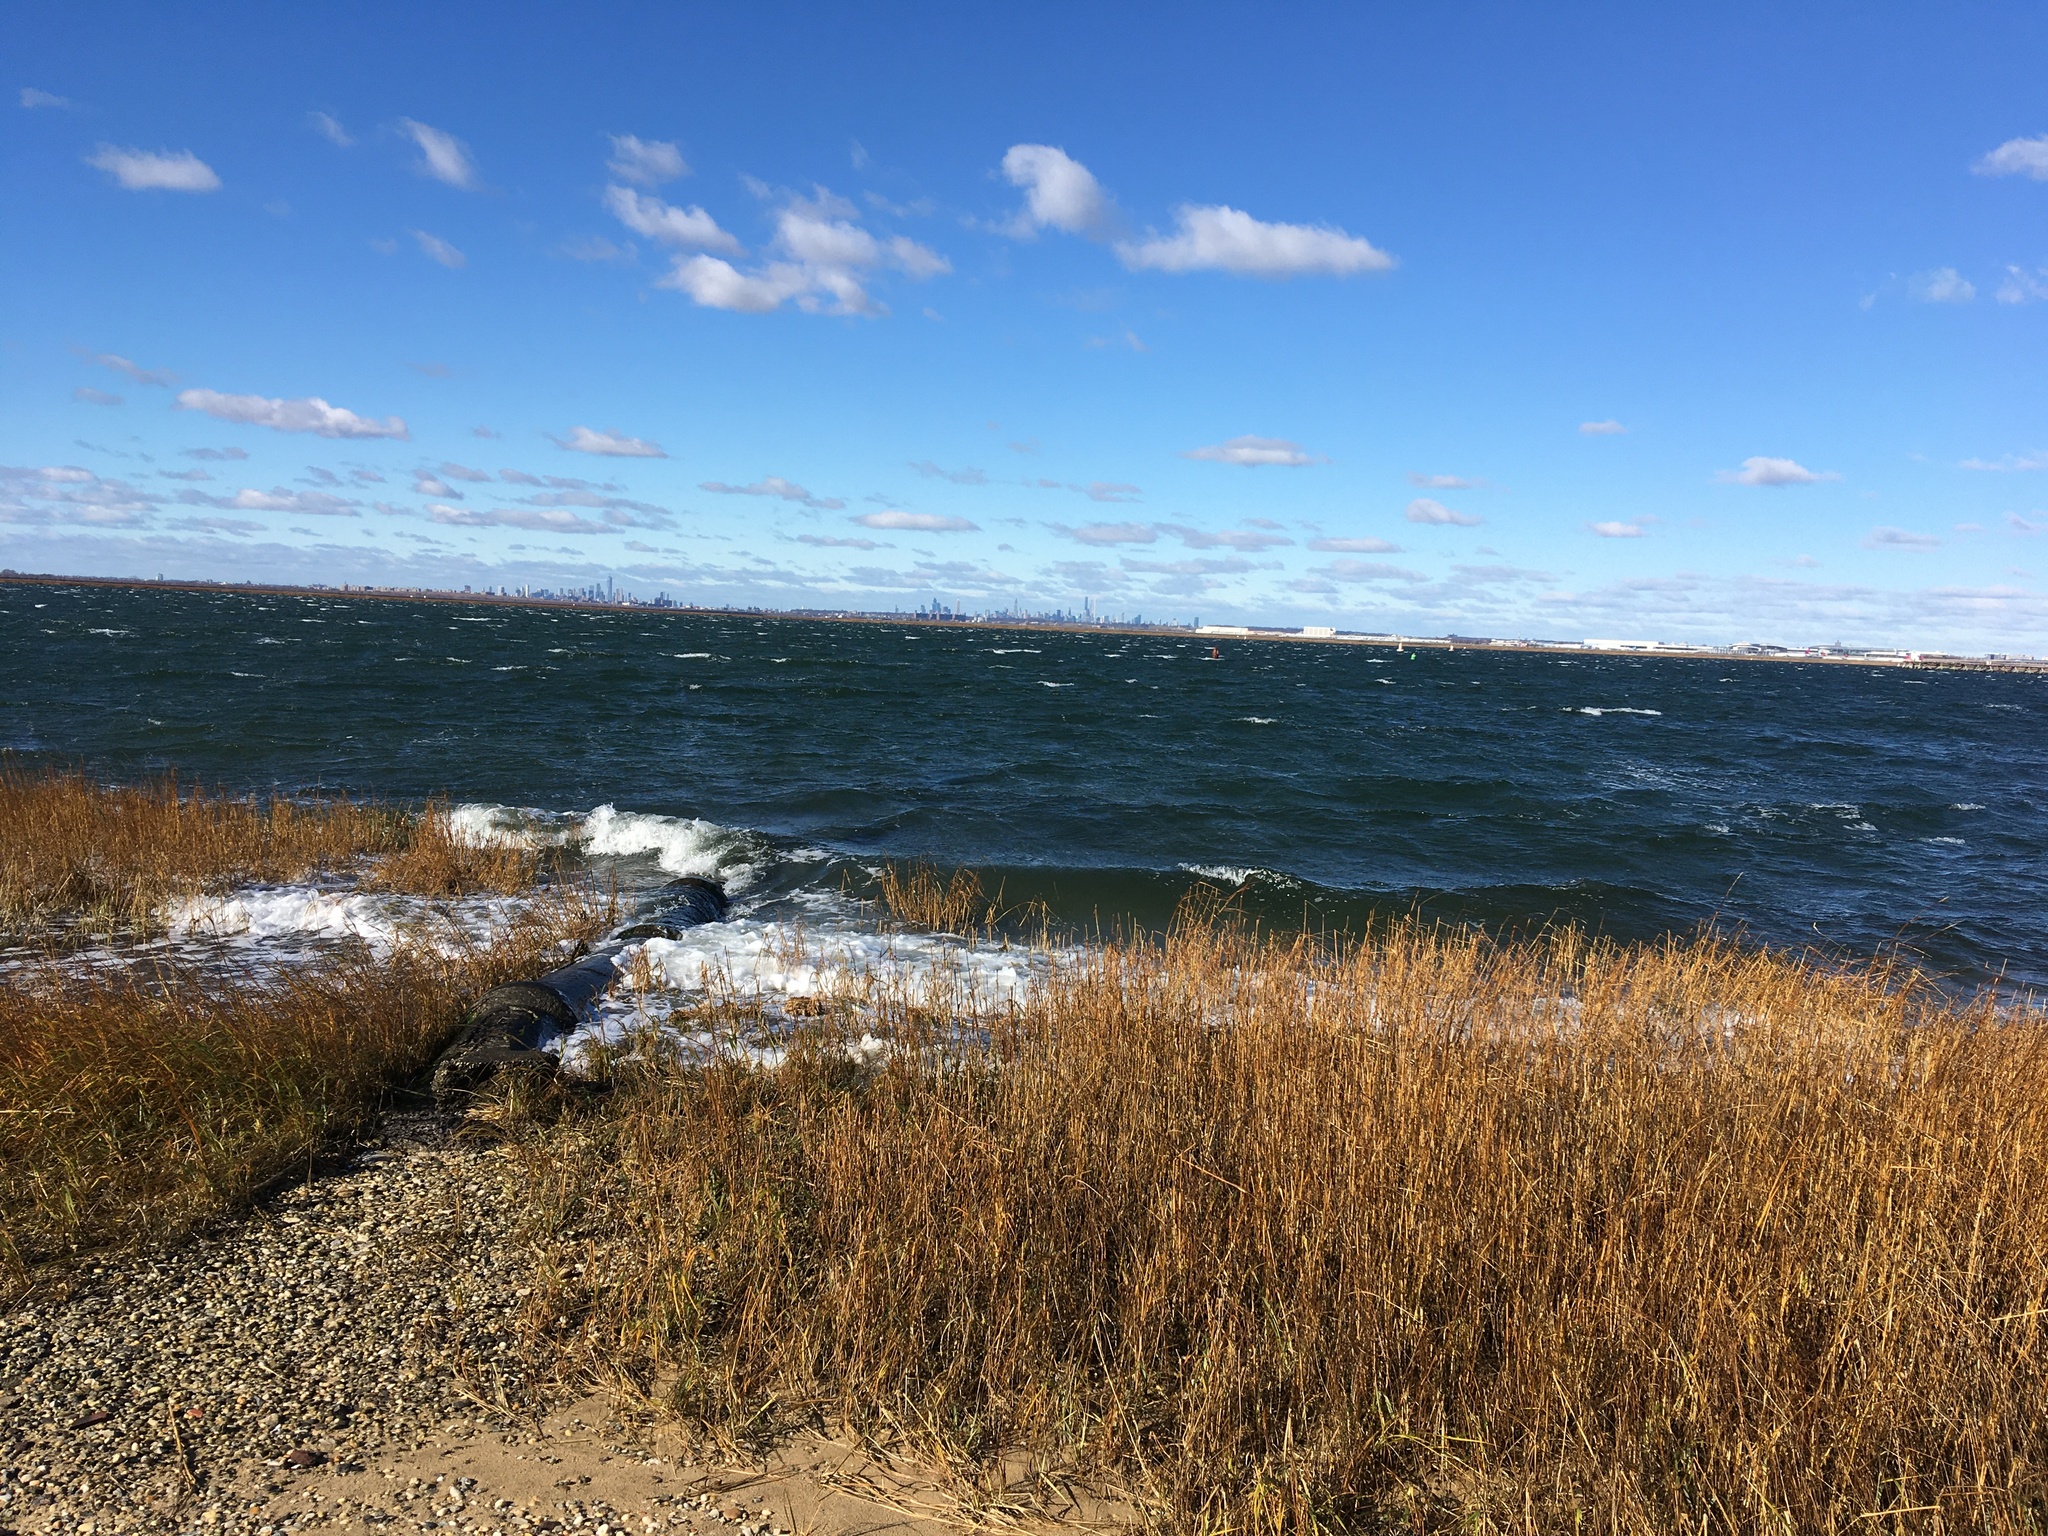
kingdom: Plantae
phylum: Tracheophyta
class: Liliopsida
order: Poales
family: Poaceae
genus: Sporobolus
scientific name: Sporobolus alterniflorus
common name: Atlantic cordgrass
